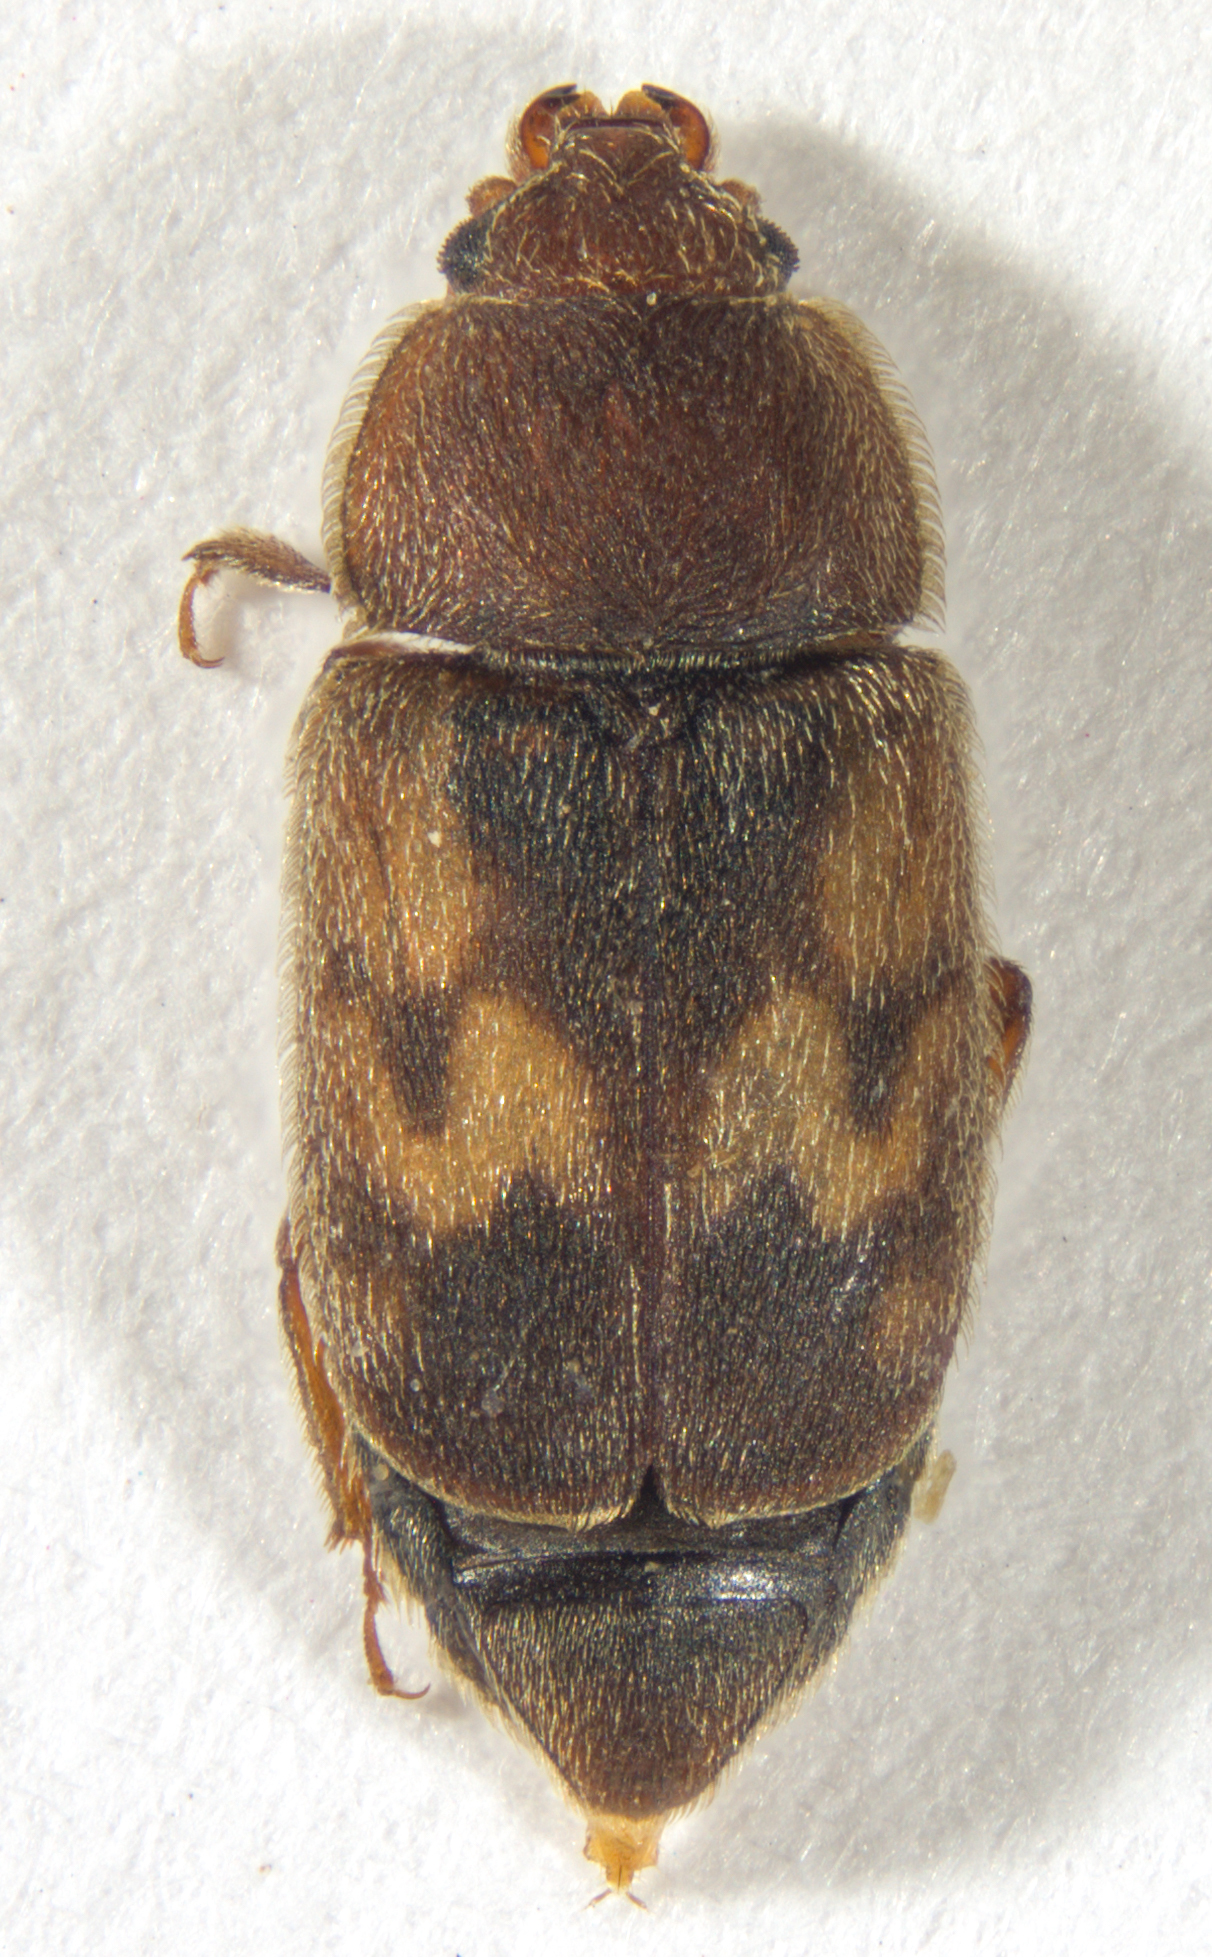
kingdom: Animalia
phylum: Arthropoda
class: Insecta
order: Coleoptera
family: Nitidulidae
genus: Nitidula
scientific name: Nitidula ziczac
